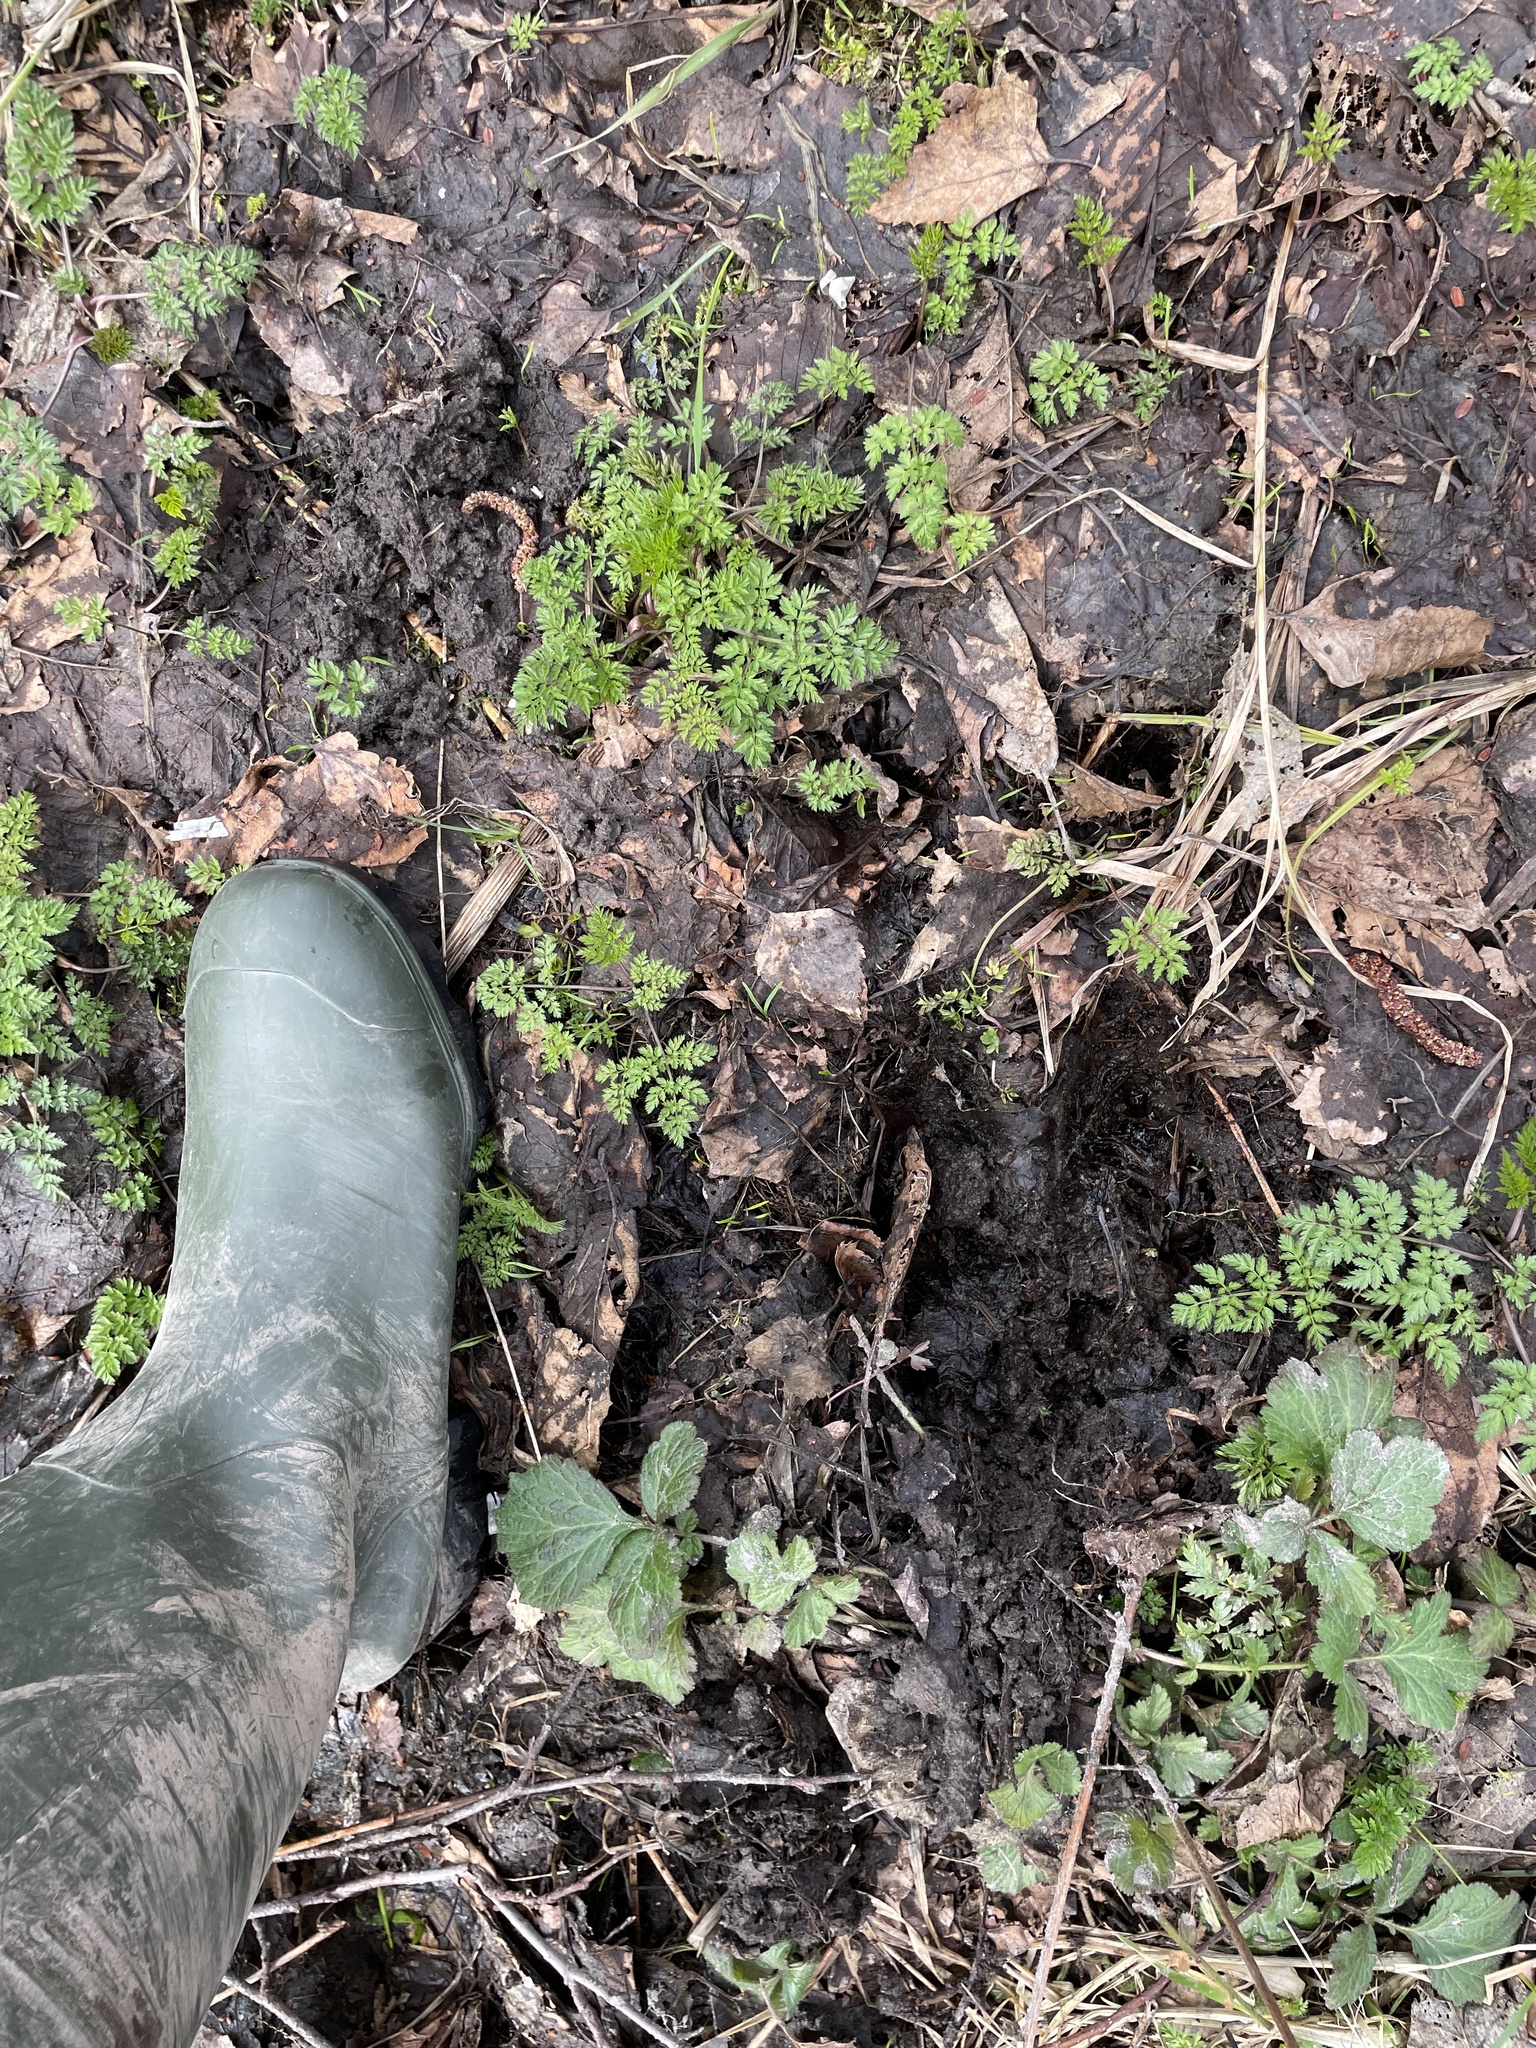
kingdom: Animalia
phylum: Chordata
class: Mammalia
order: Artiodactyla
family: Cervidae
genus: Alces
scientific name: Alces alces
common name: Moose
